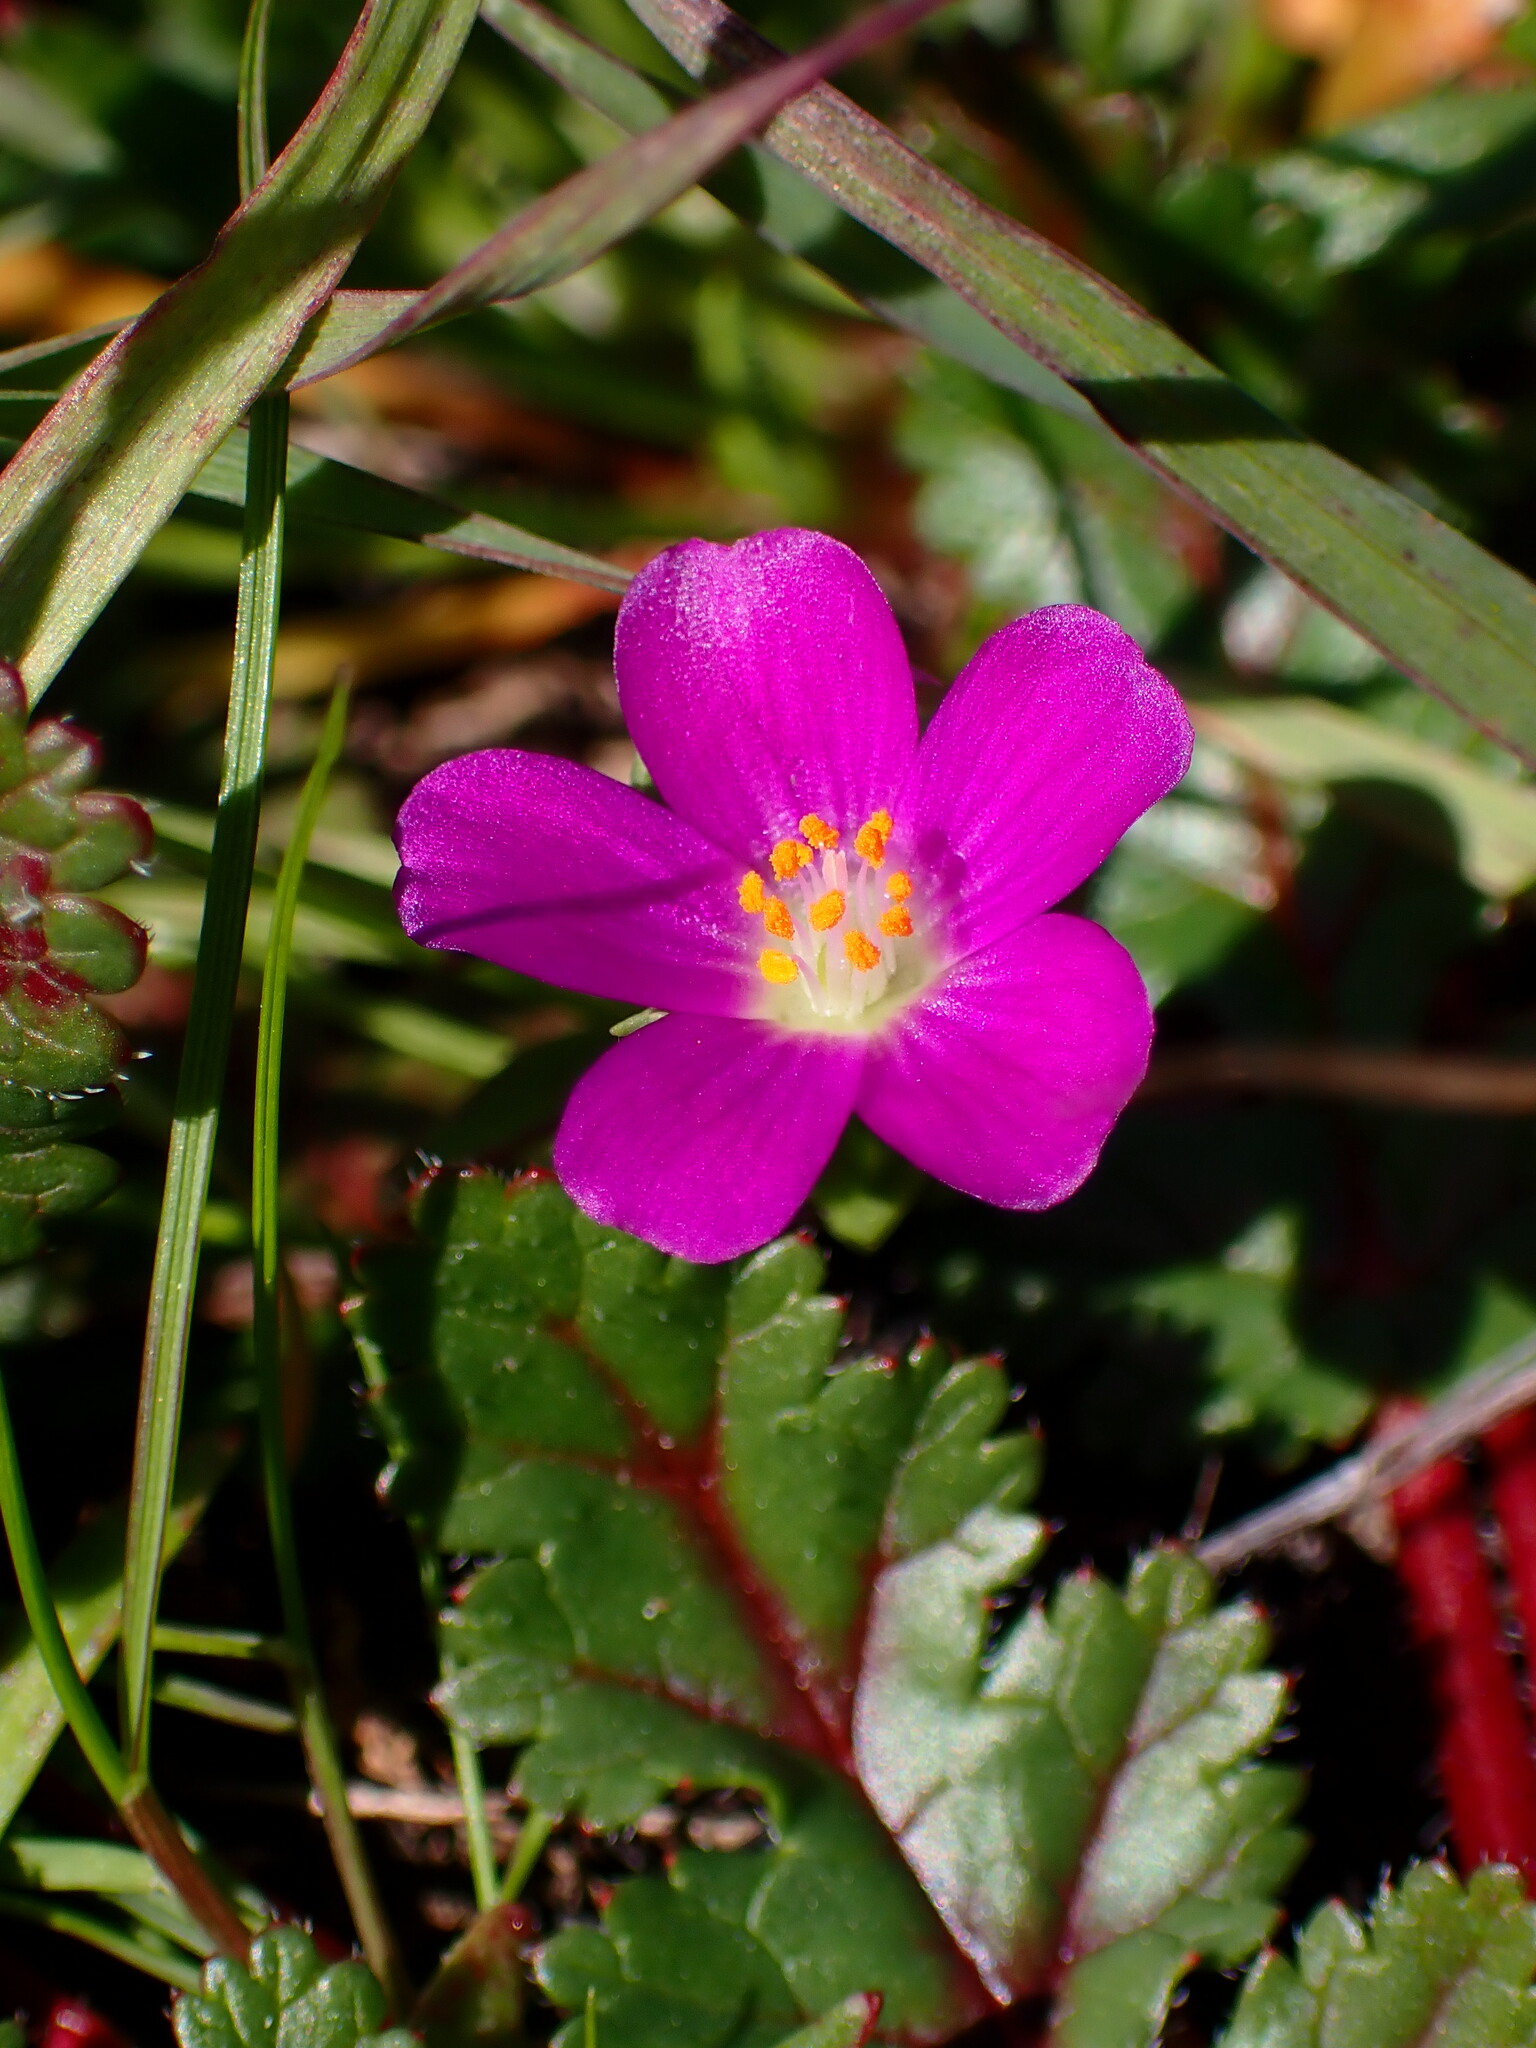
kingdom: Plantae
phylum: Tracheophyta
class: Magnoliopsida
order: Caryophyllales
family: Montiaceae
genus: Calandrinia
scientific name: Calandrinia menziesii
